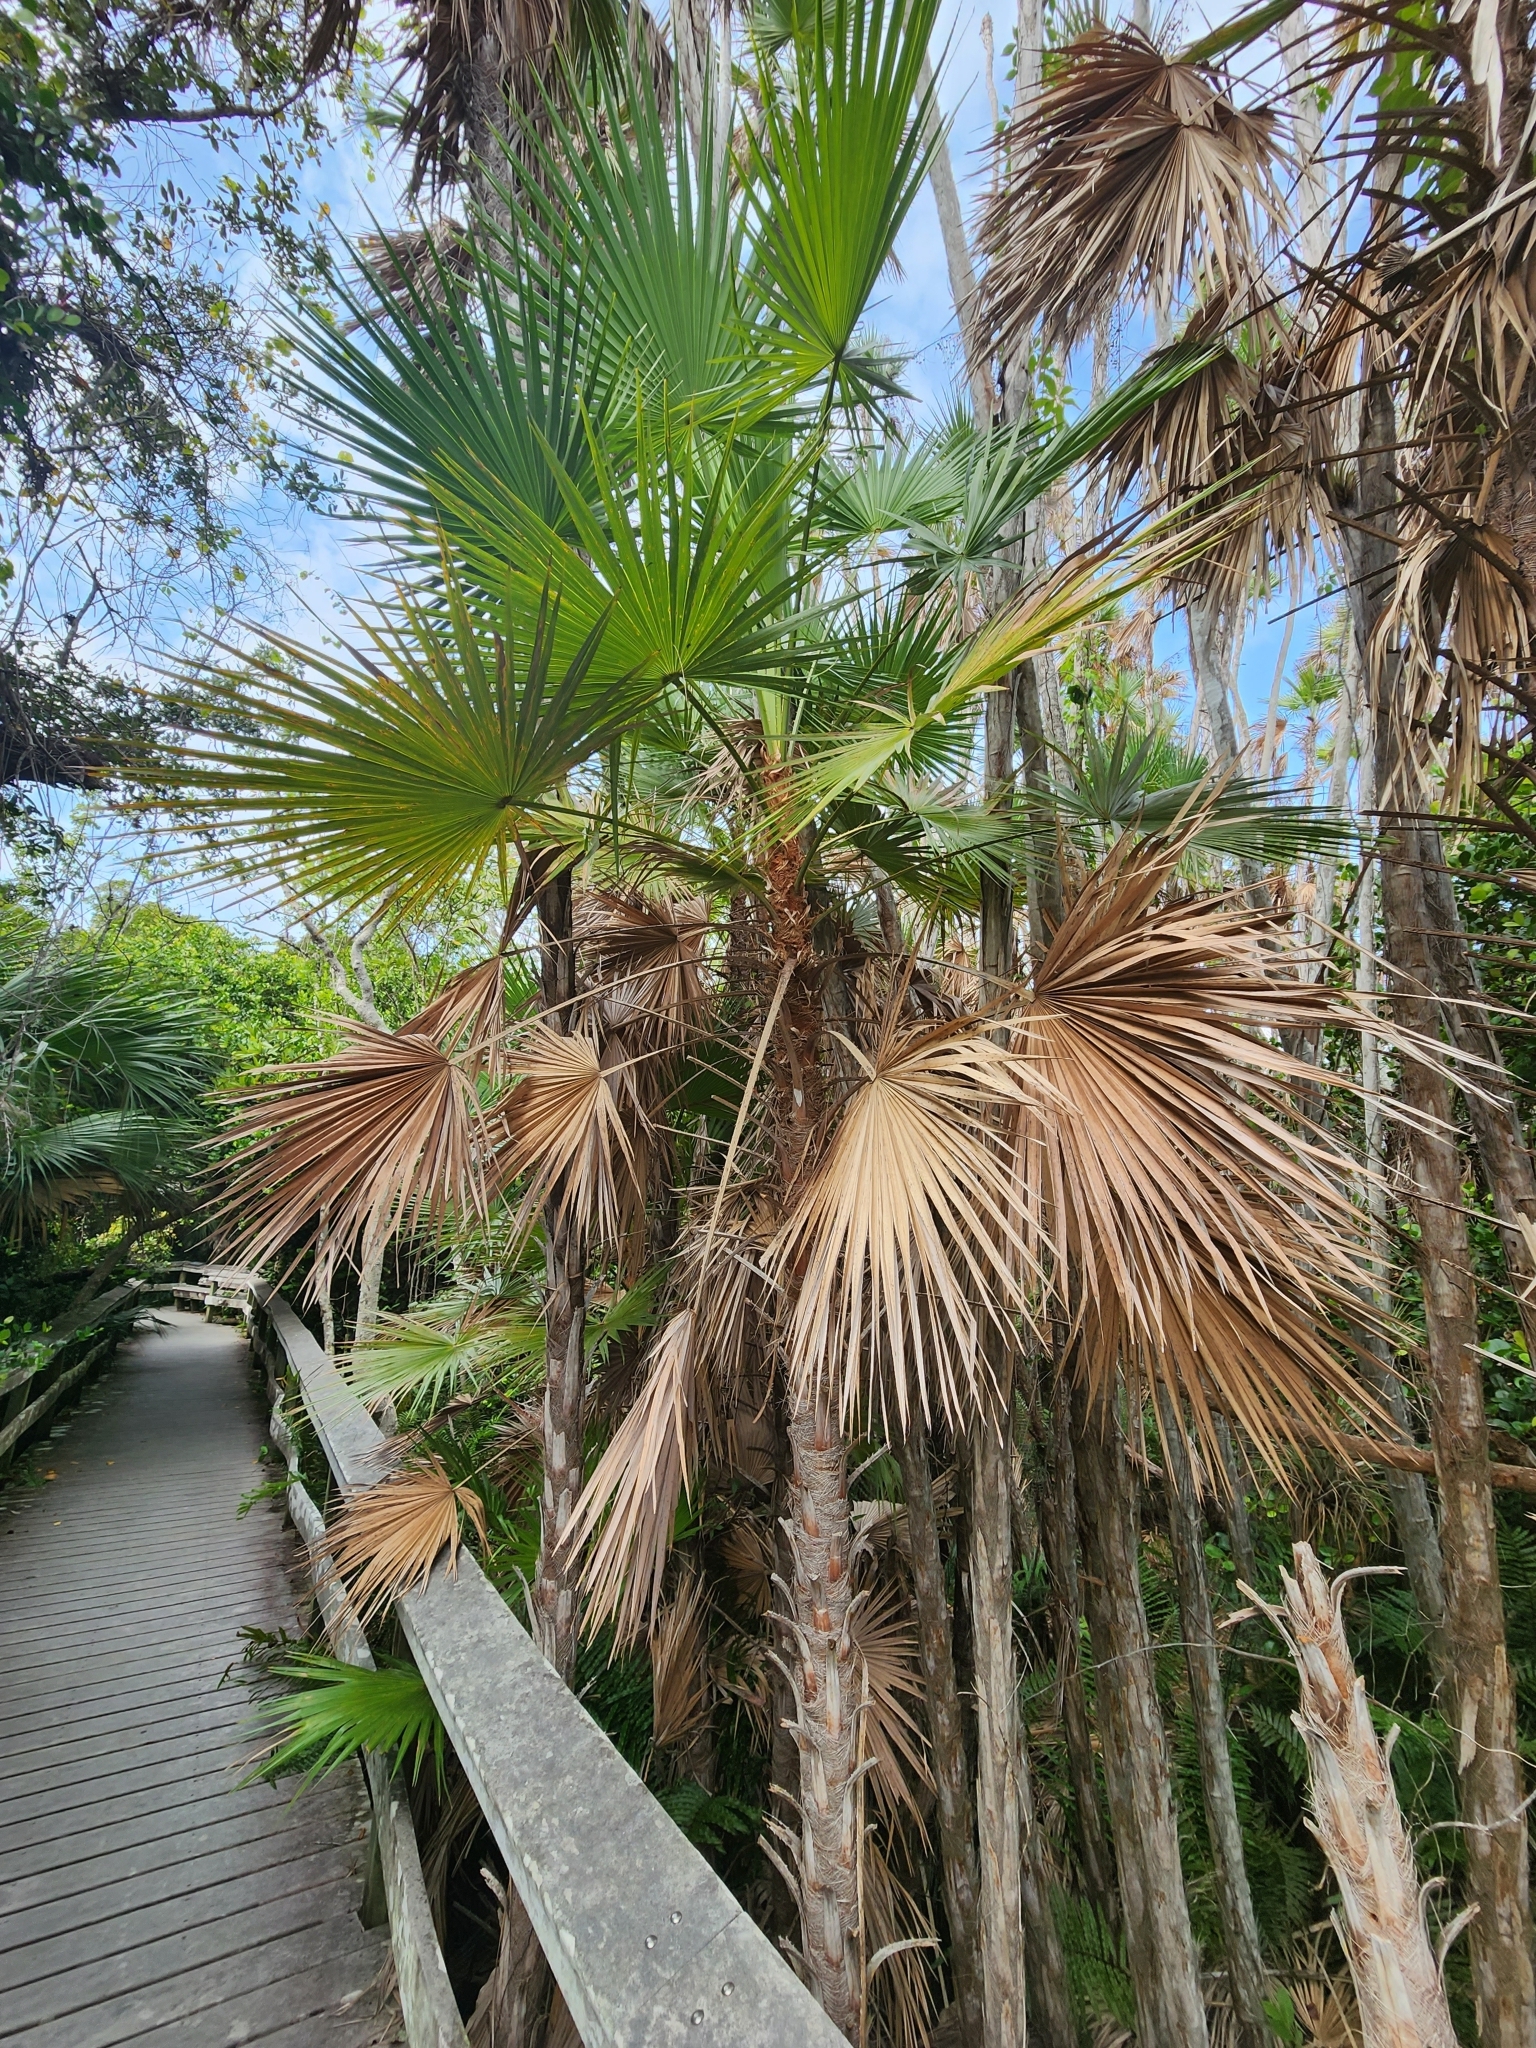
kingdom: Plantae
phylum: Tracheophyta
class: Liliopsida
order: Arecales
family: Arecaceae
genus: Acoelorraphe
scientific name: Acoelorraphe wrightii
